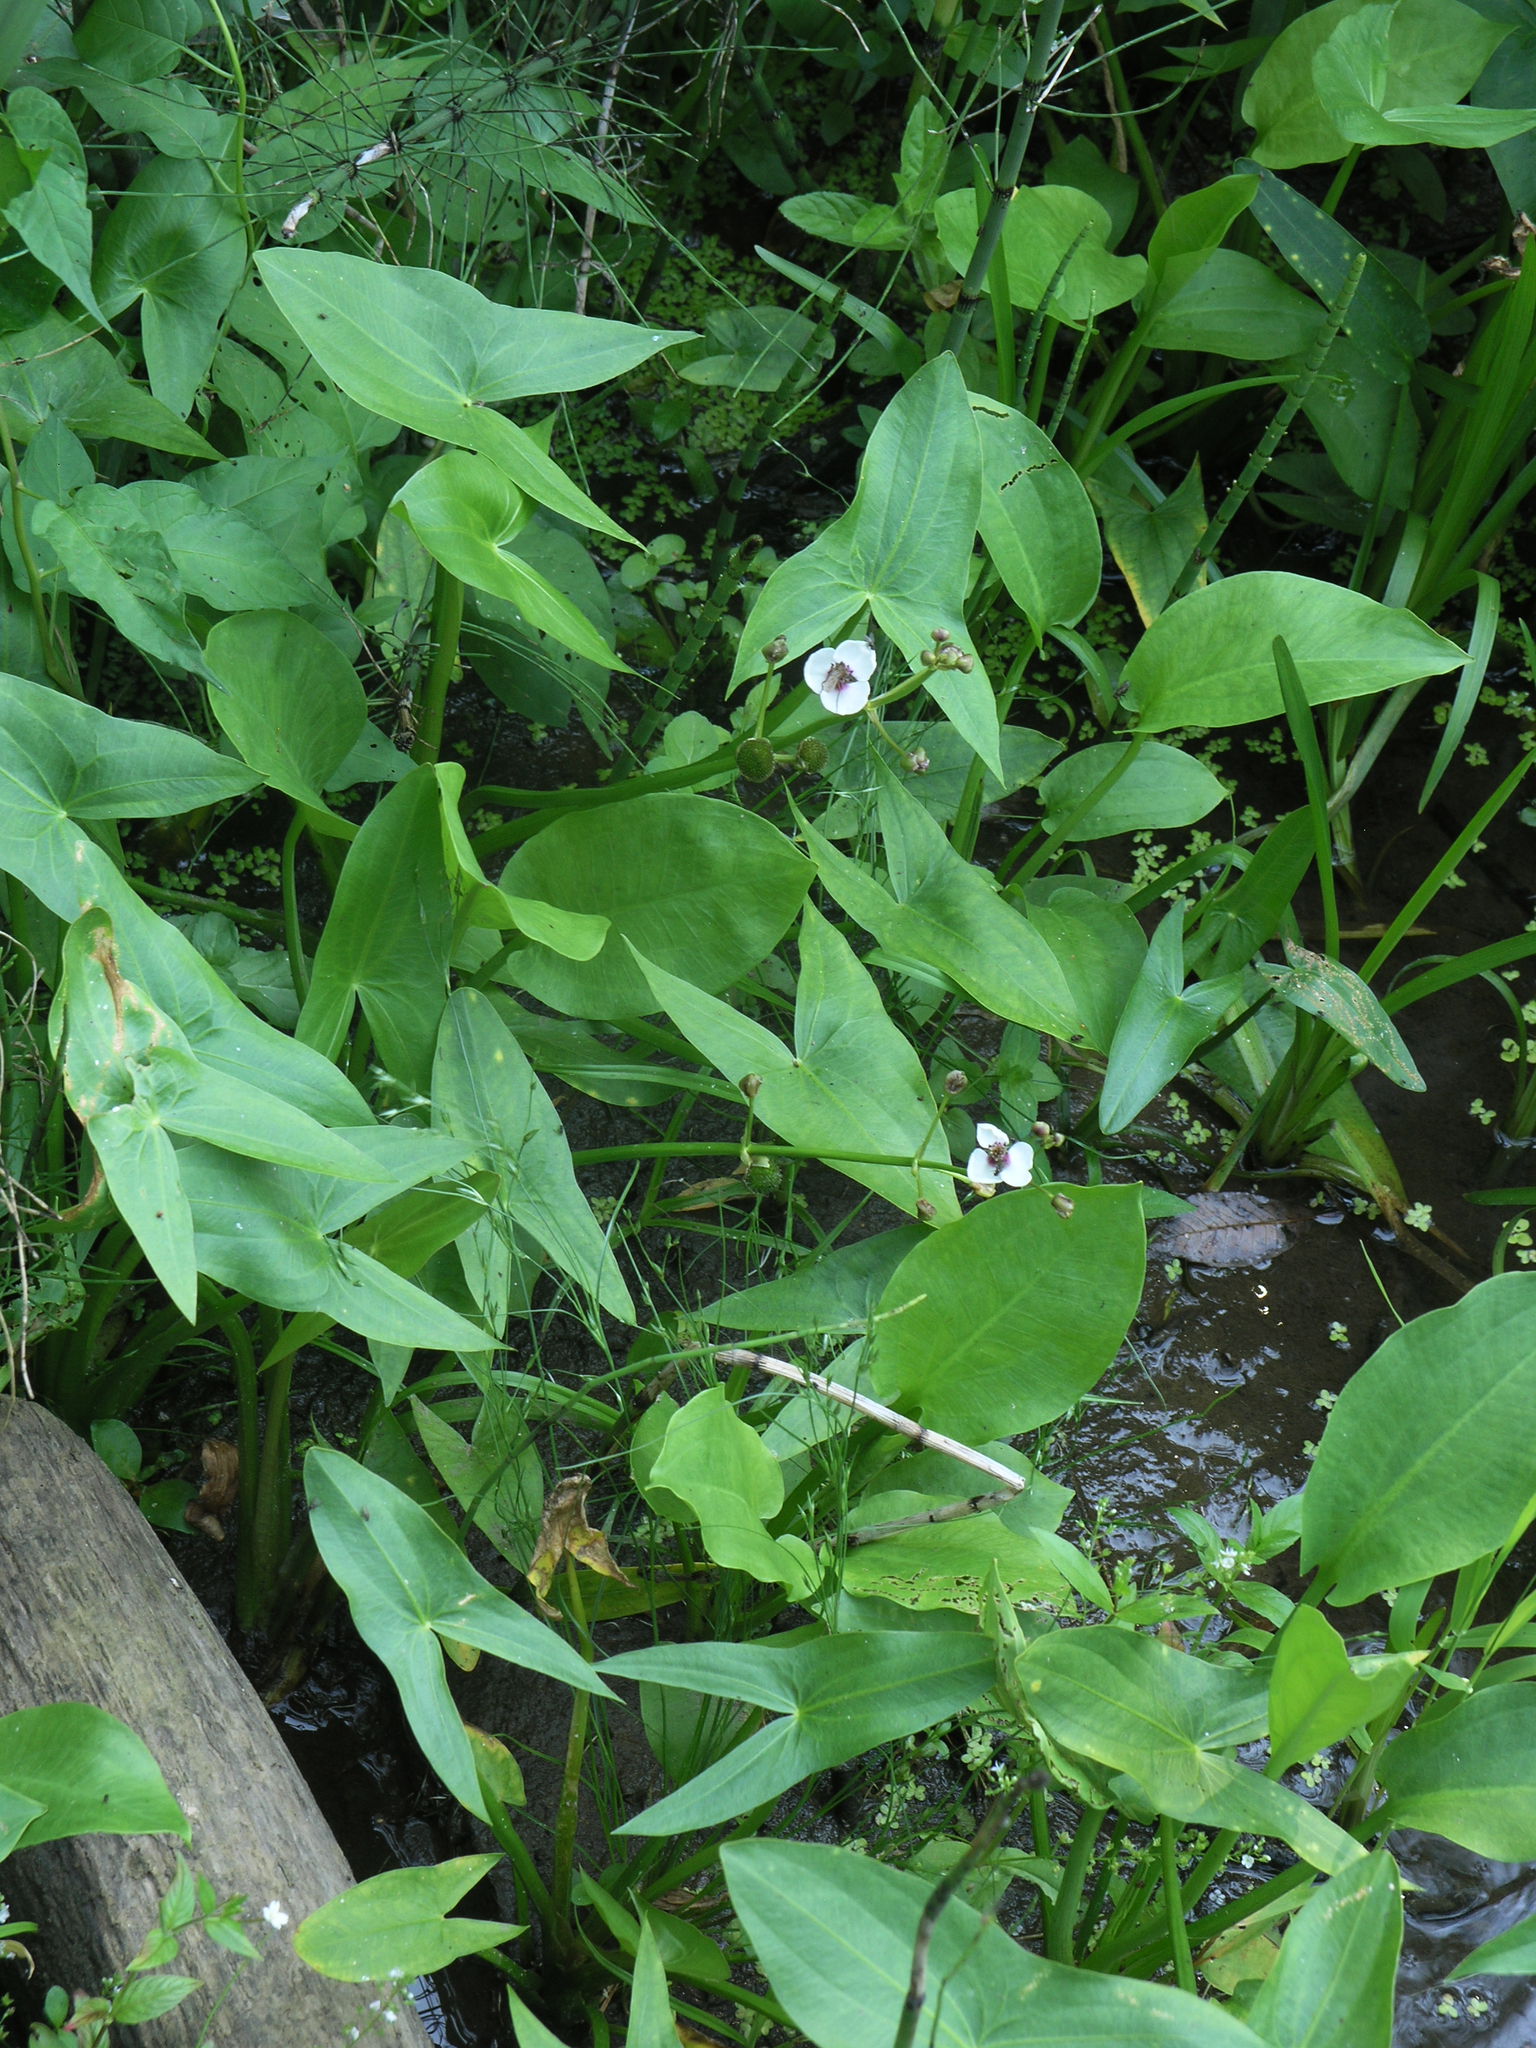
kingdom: Plantae
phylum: Tracheophyta
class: Liliopsida
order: Alismatales
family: Alismataceae
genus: Sagittaria
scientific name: Sagittaria sagittifolia
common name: Arrowhead
